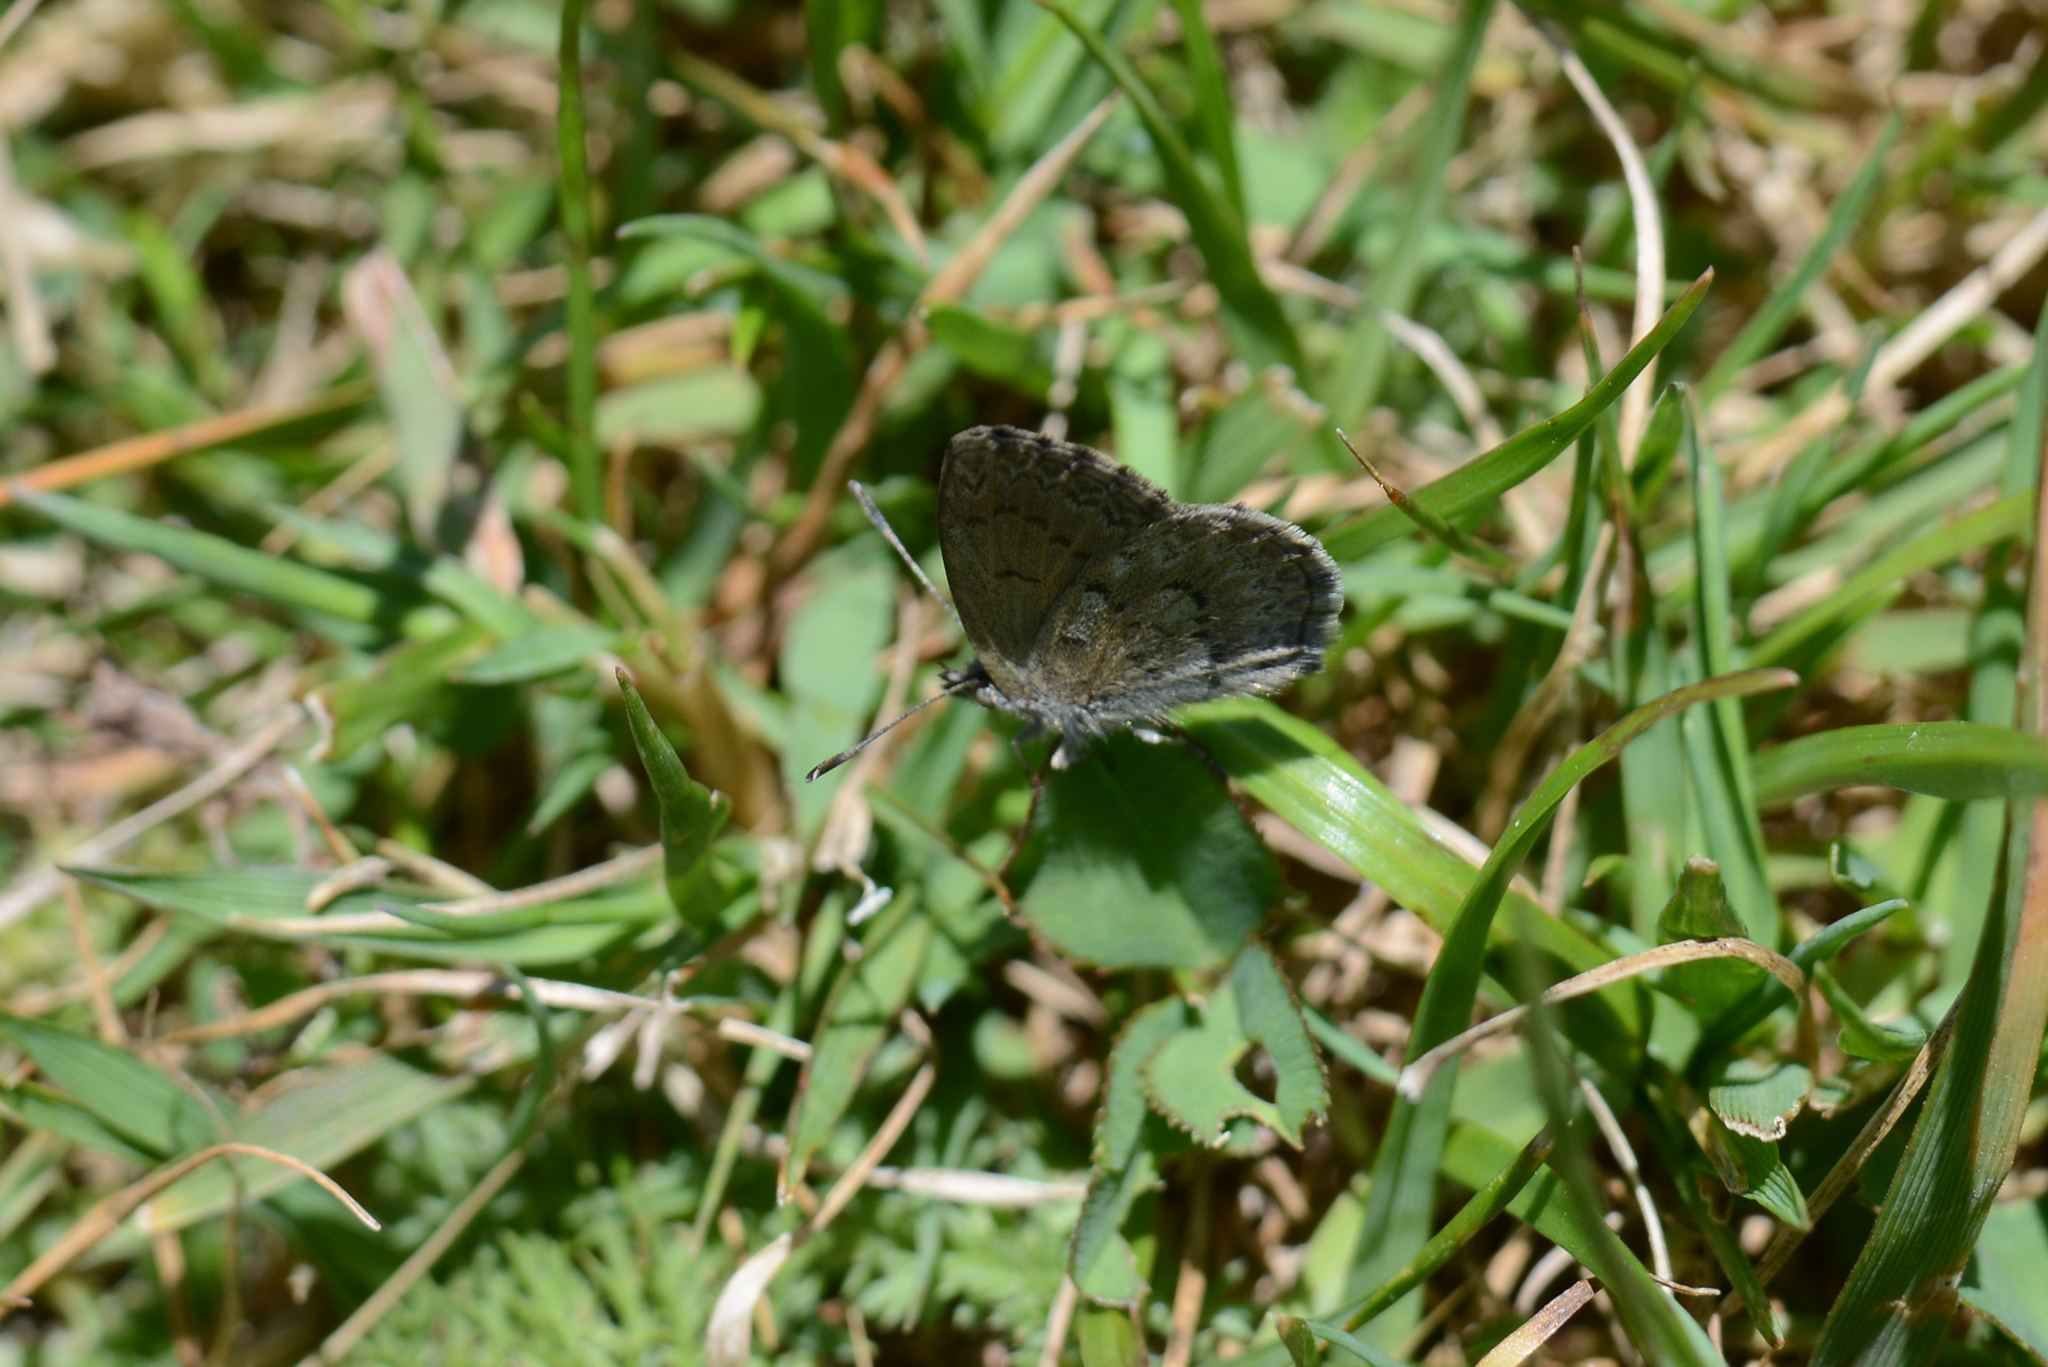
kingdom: Animalia
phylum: Arthropoda
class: Insecta
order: Lepidoptera
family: Lycaenidae
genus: Zizina
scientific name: Zizina oxleyi
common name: Southern blue
